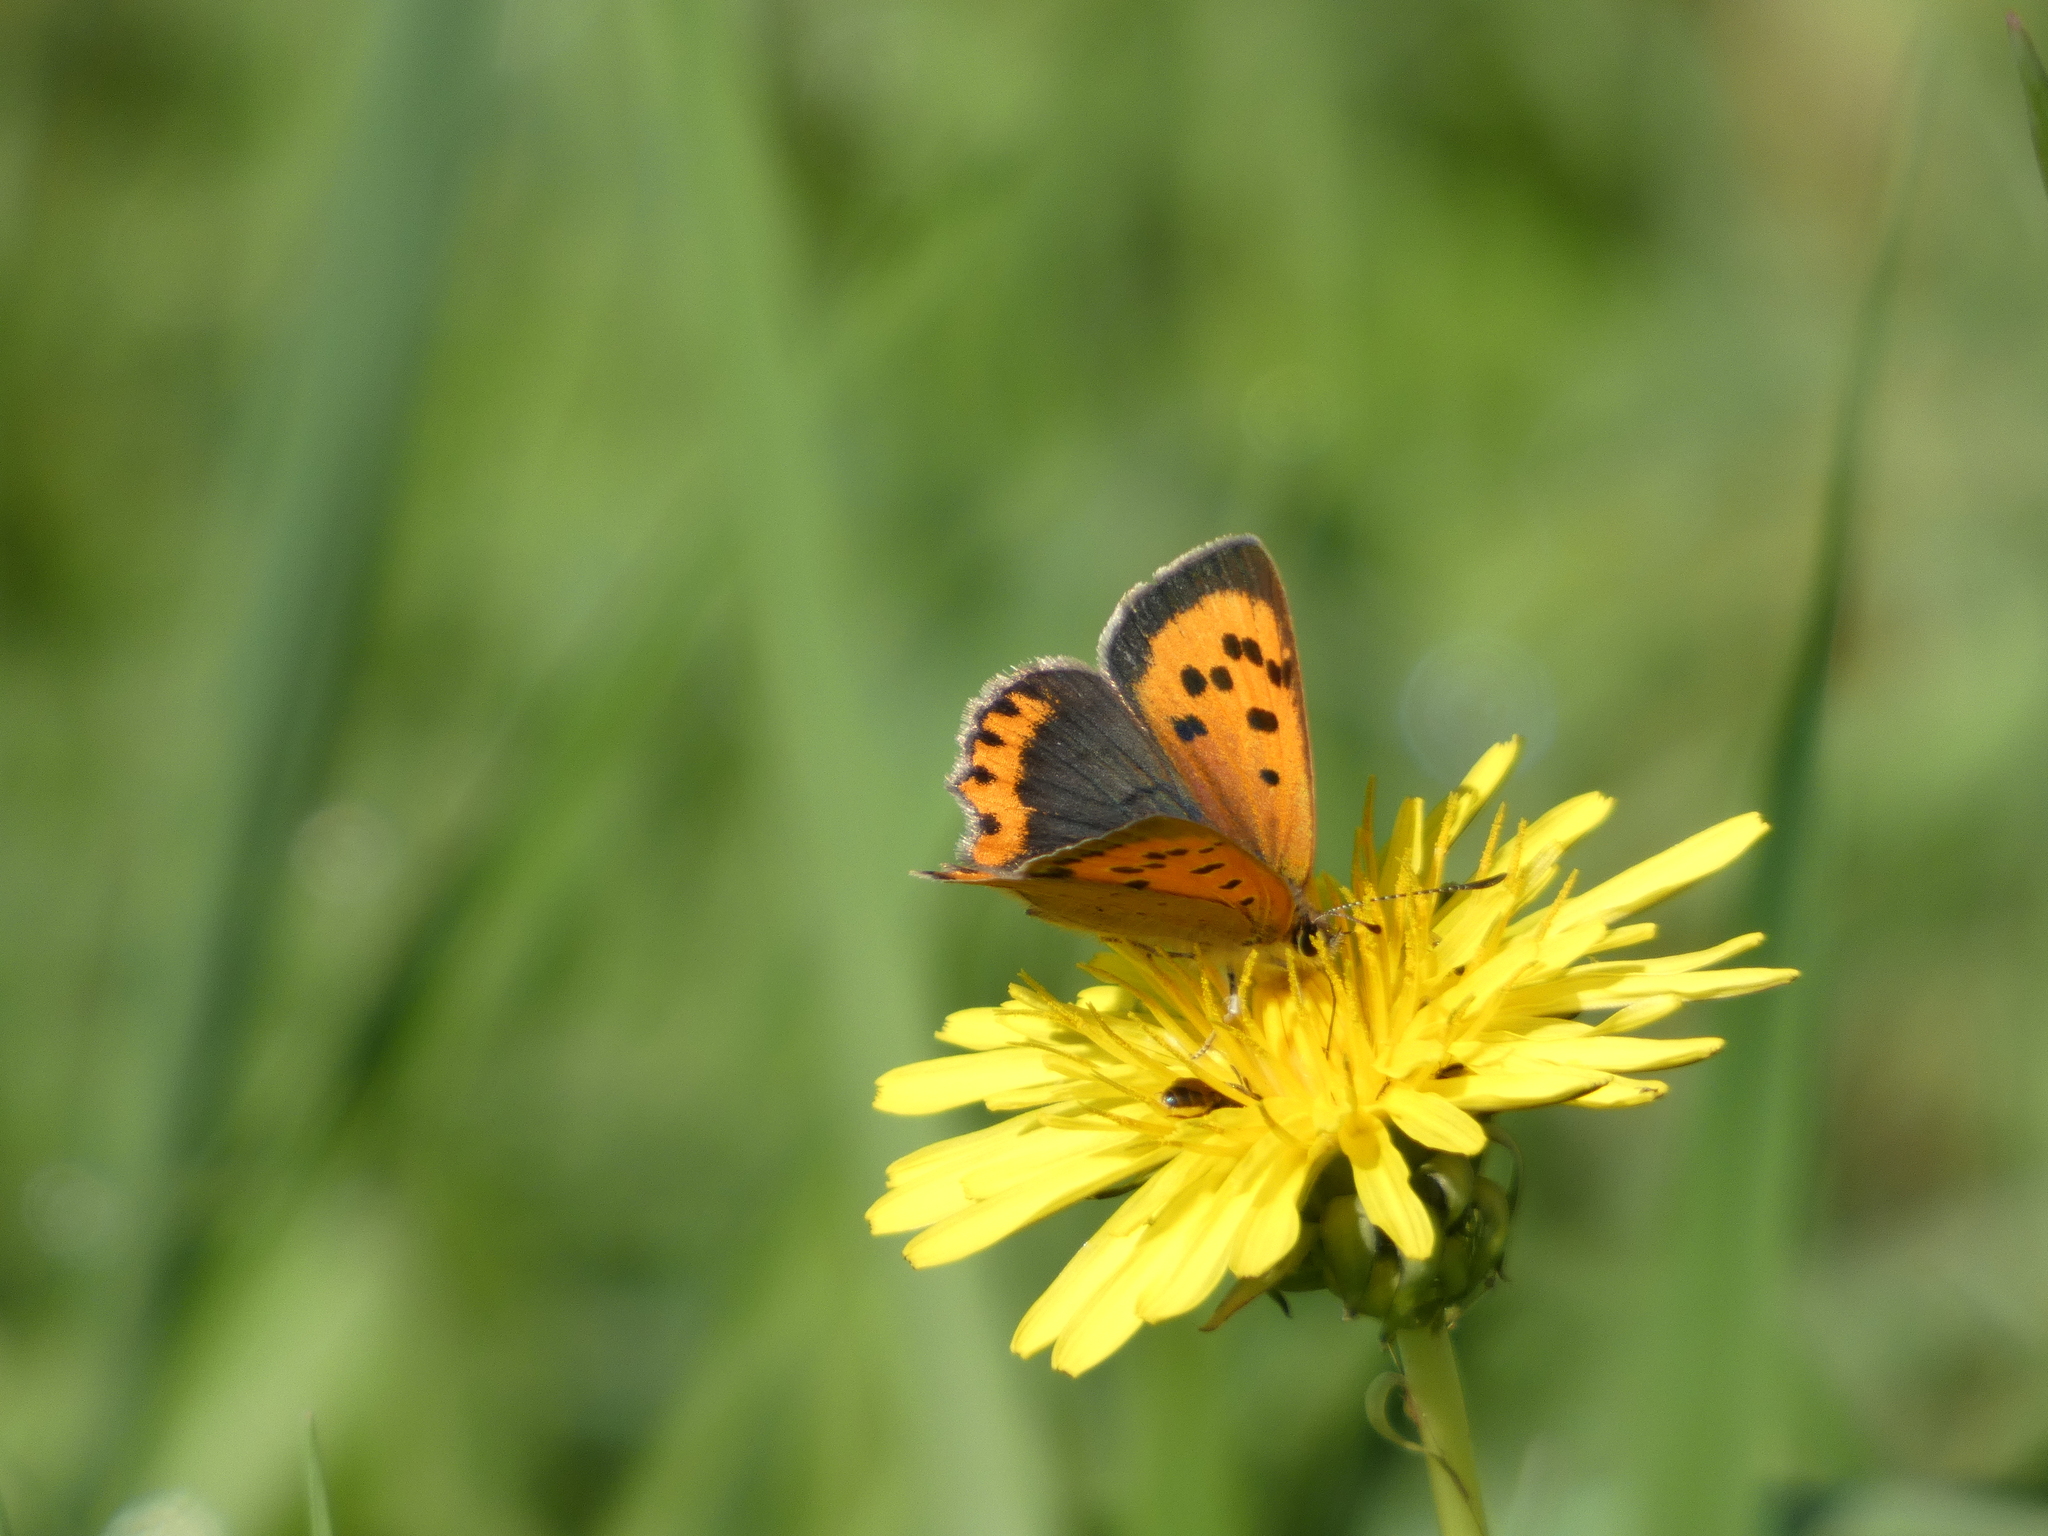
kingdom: Animalia
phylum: Arthropoda
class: Insecta
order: Lepidoptera
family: Lycaenidae
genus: Lycaena
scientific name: Lycaena phlaeas
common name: Small copper
